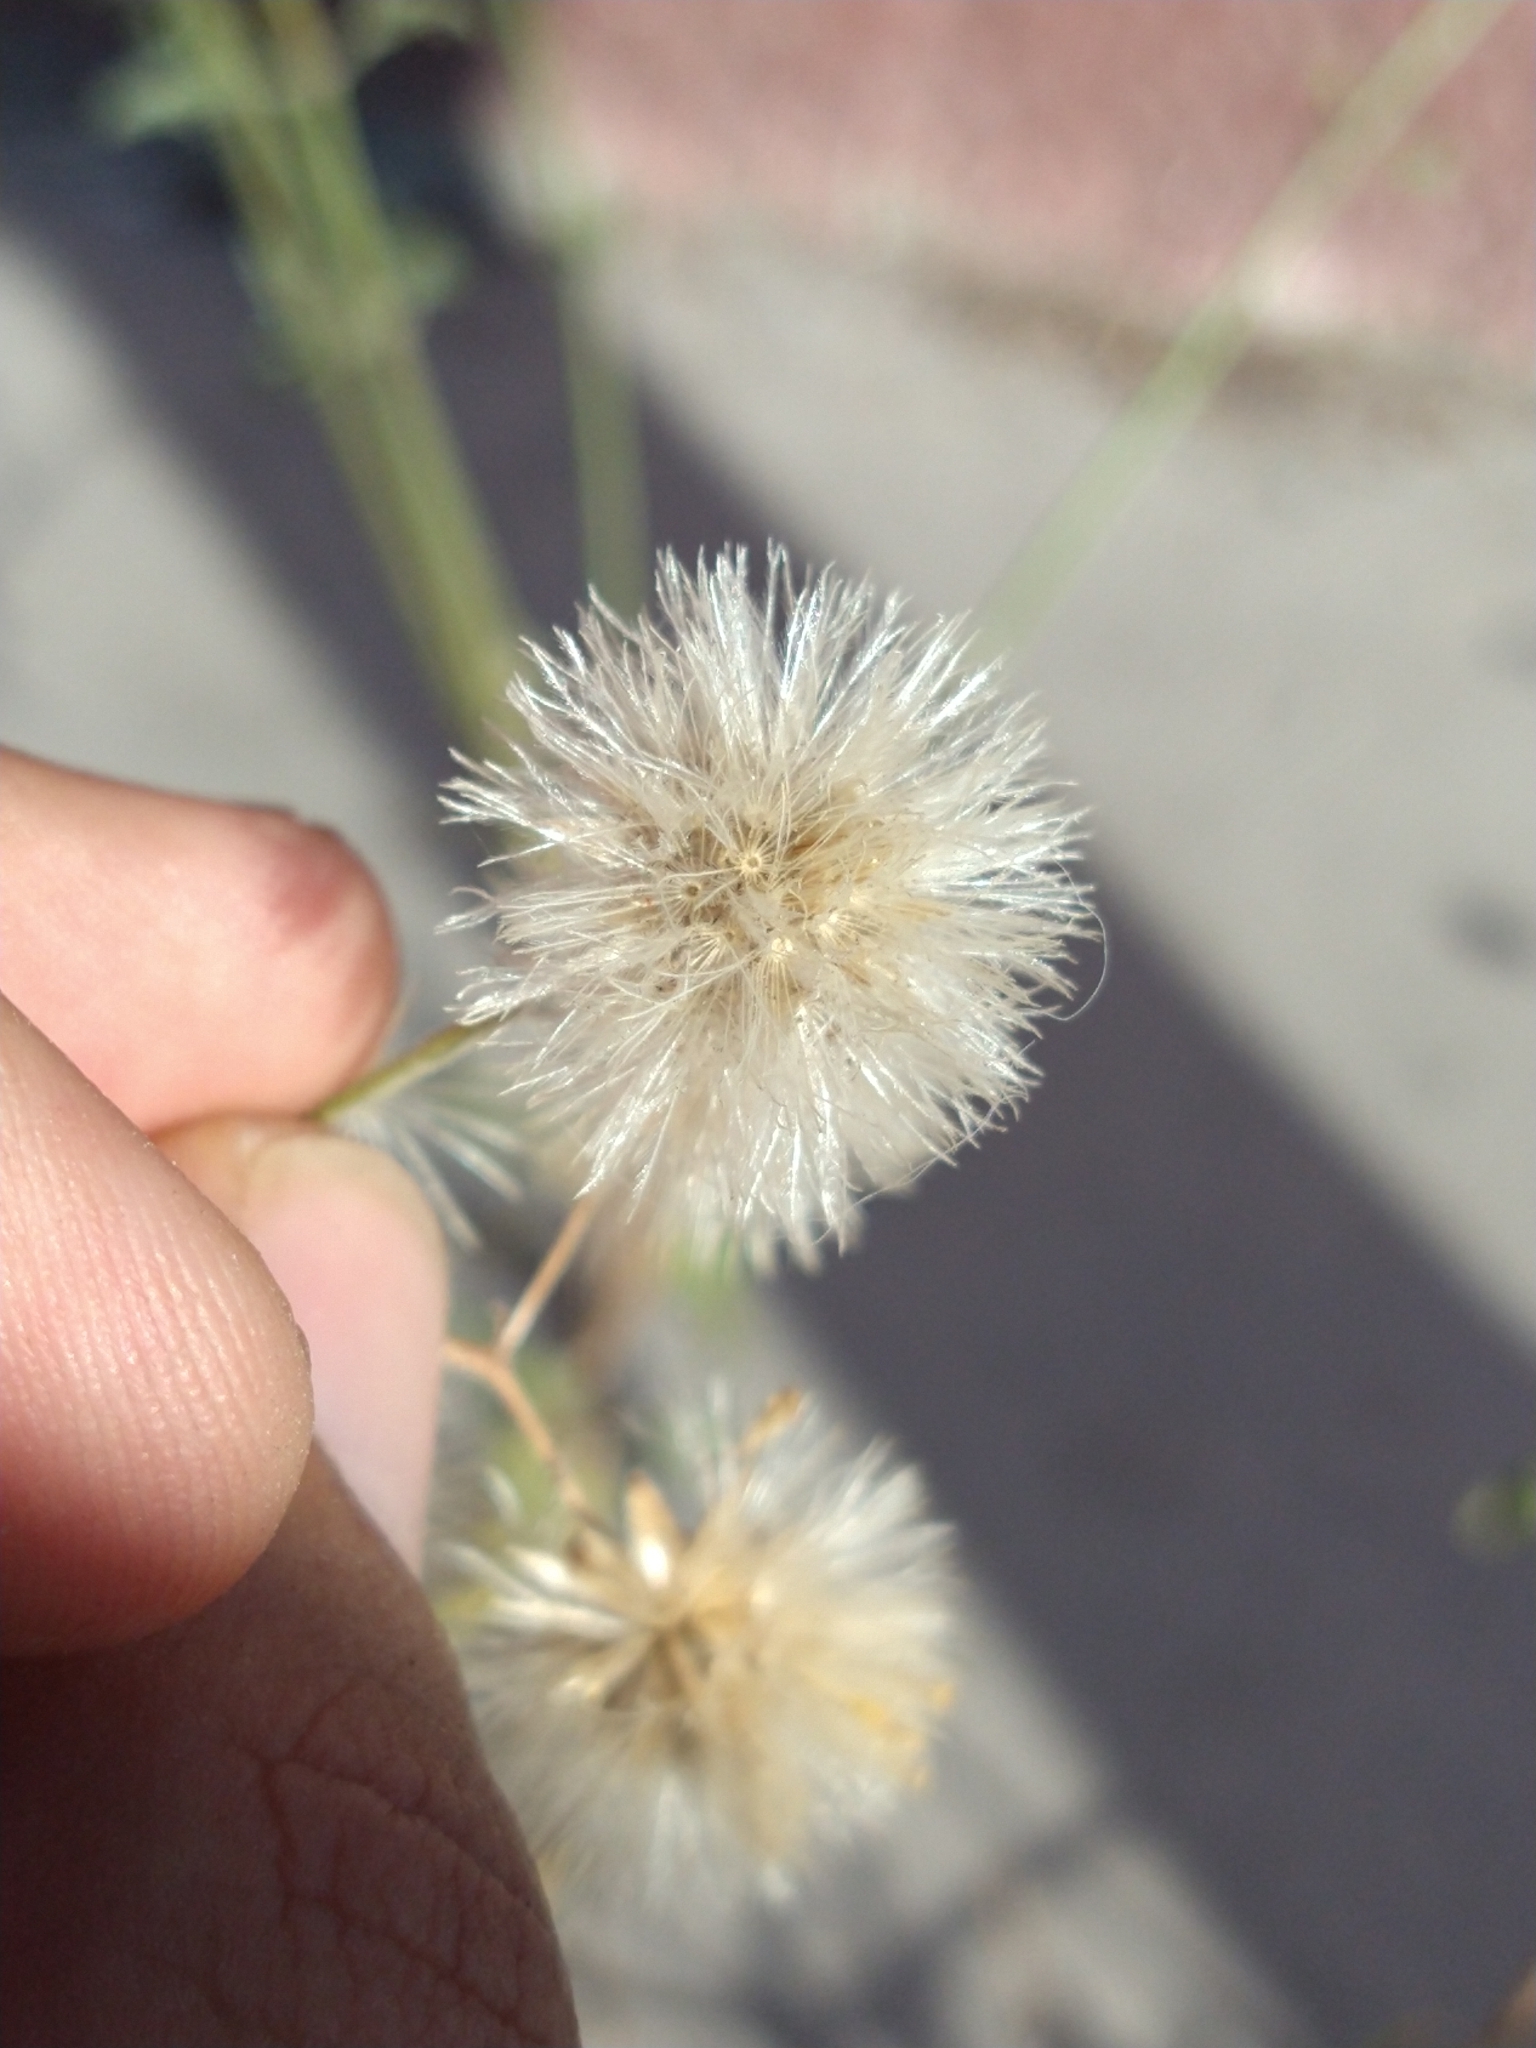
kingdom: Plantae
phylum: Tracheophyta
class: Magnoliopsida
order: Asterales
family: Asteraceae
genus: Bebbia
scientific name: Bebbia atriplicifolia
